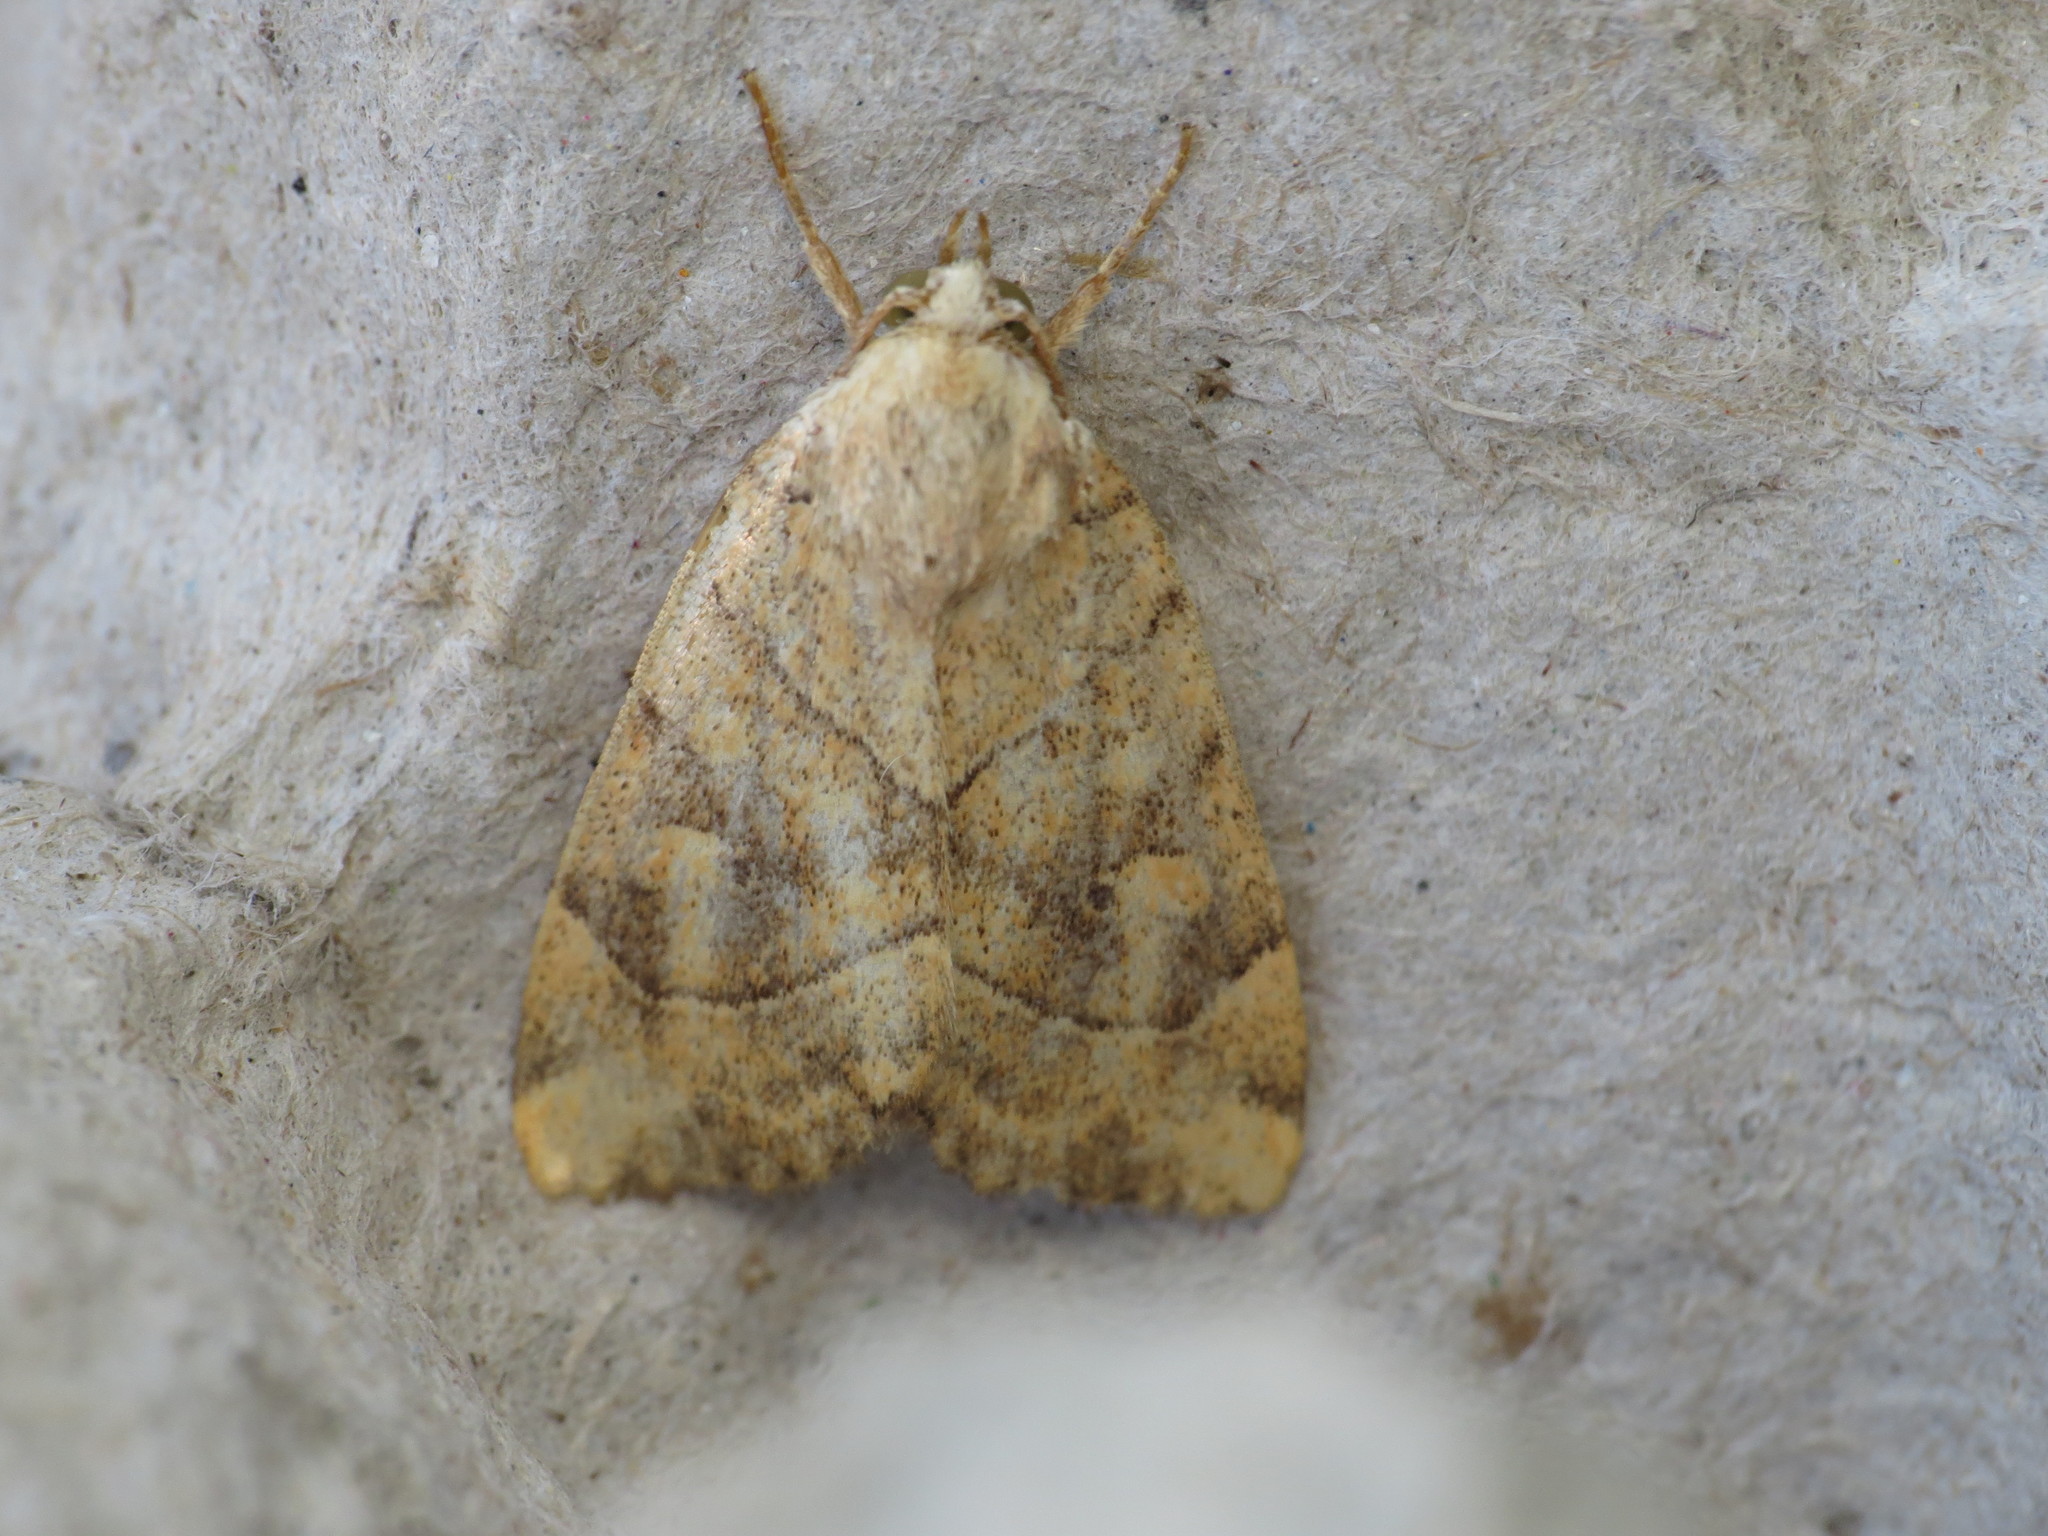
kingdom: Animalia
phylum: Arthropoda
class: Insecta
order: Lepidoptera
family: Noctuidae
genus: Cosmia
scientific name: Cosmia trapezina
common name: Dun-bar
